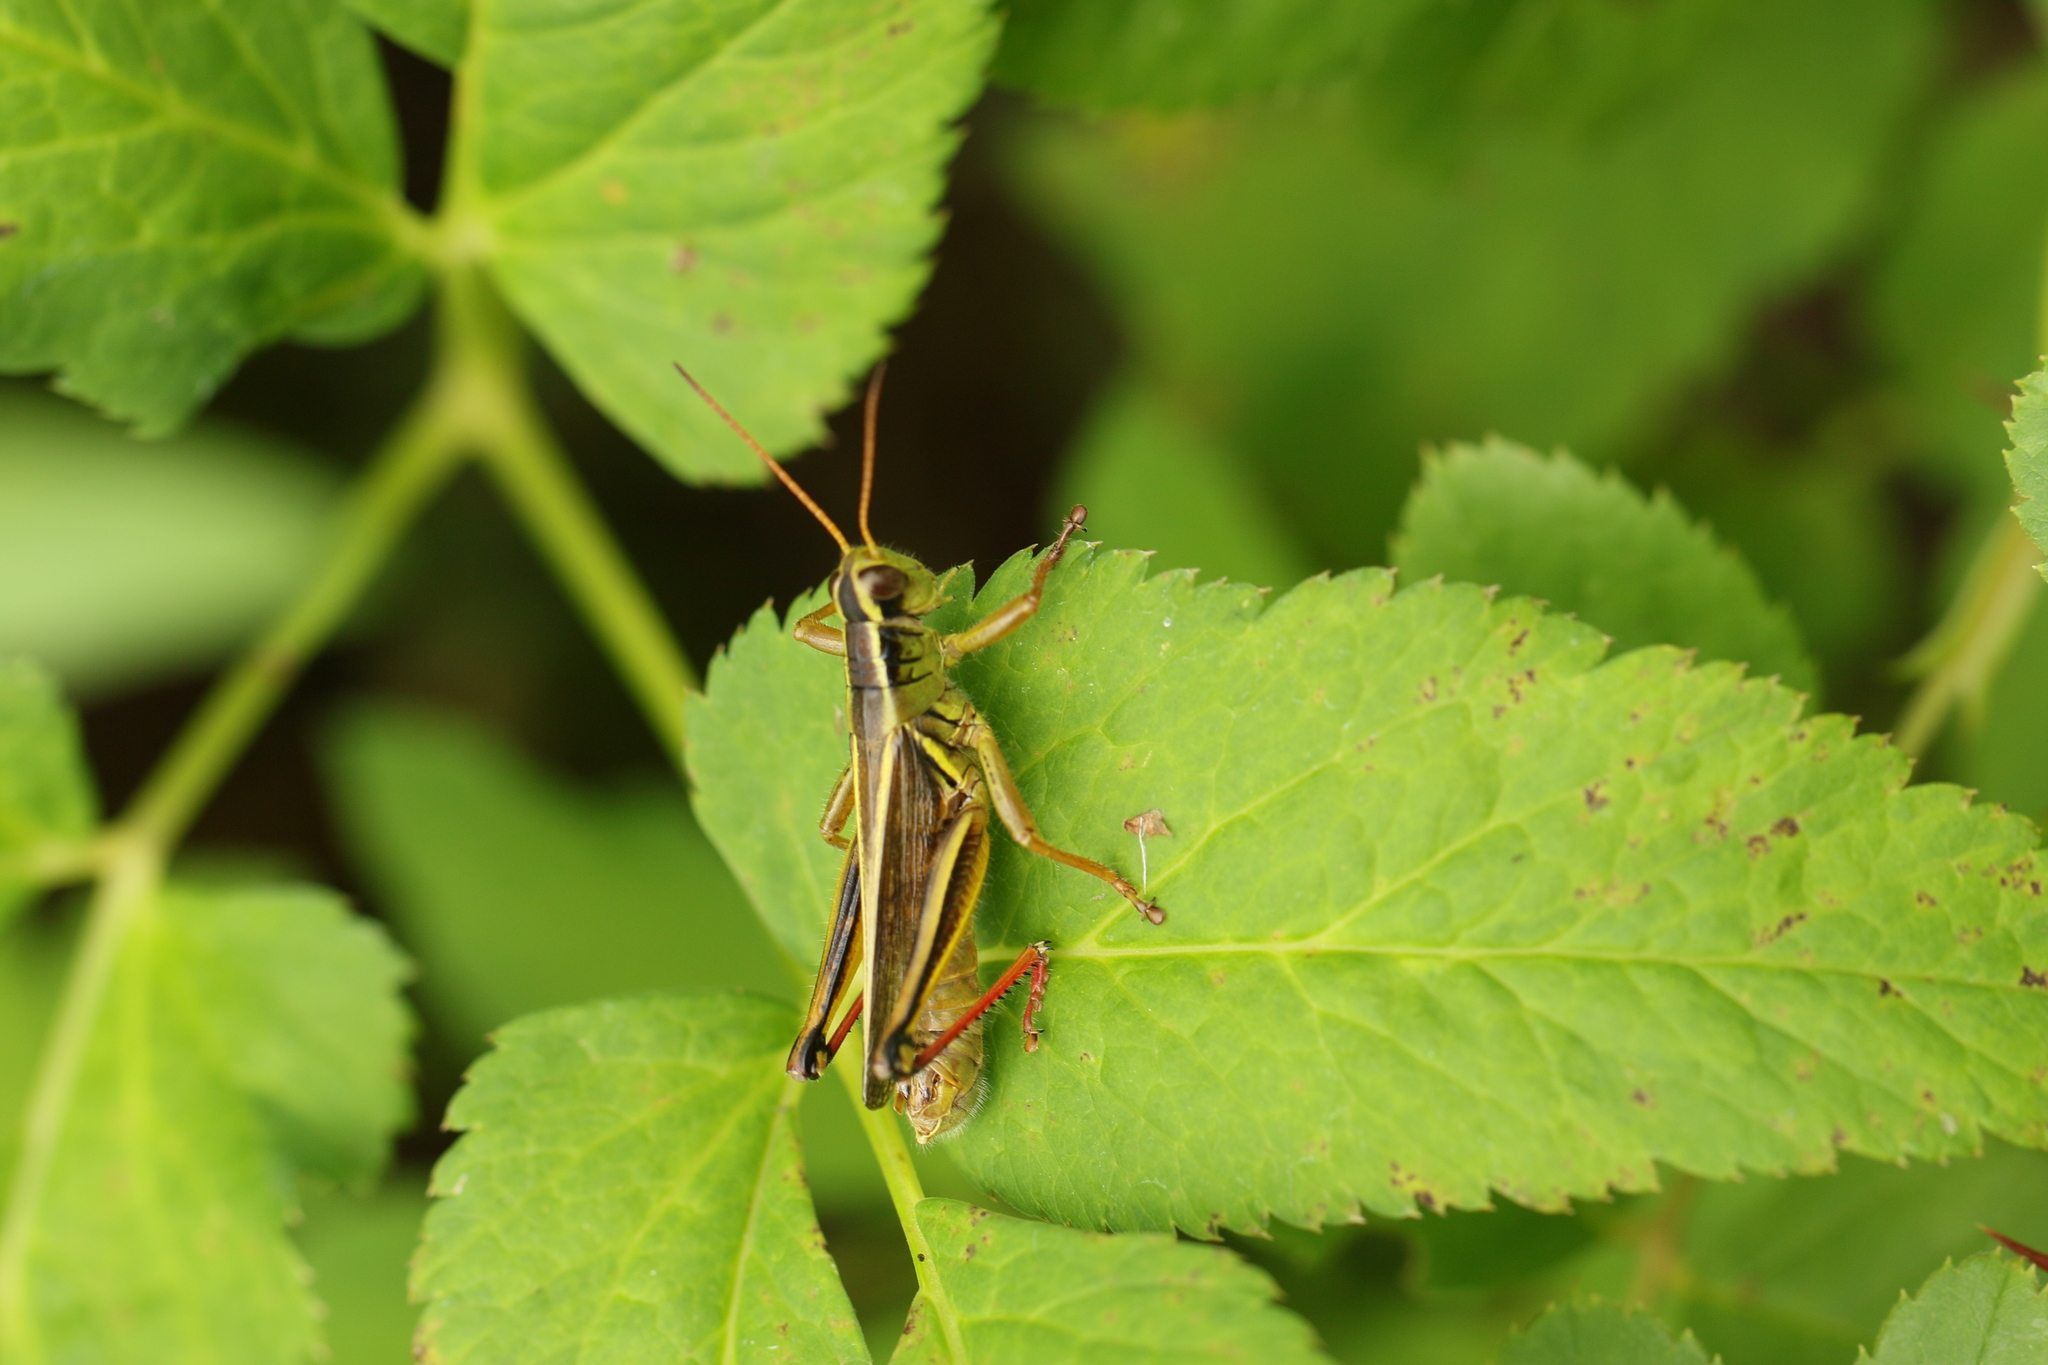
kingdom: Animalia
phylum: Arthropoda
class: Insecta
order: Orthoptera
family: Acrididae
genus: Melanoplus
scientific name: Melanoplus bivittatus
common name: Two-striped grasshopper
